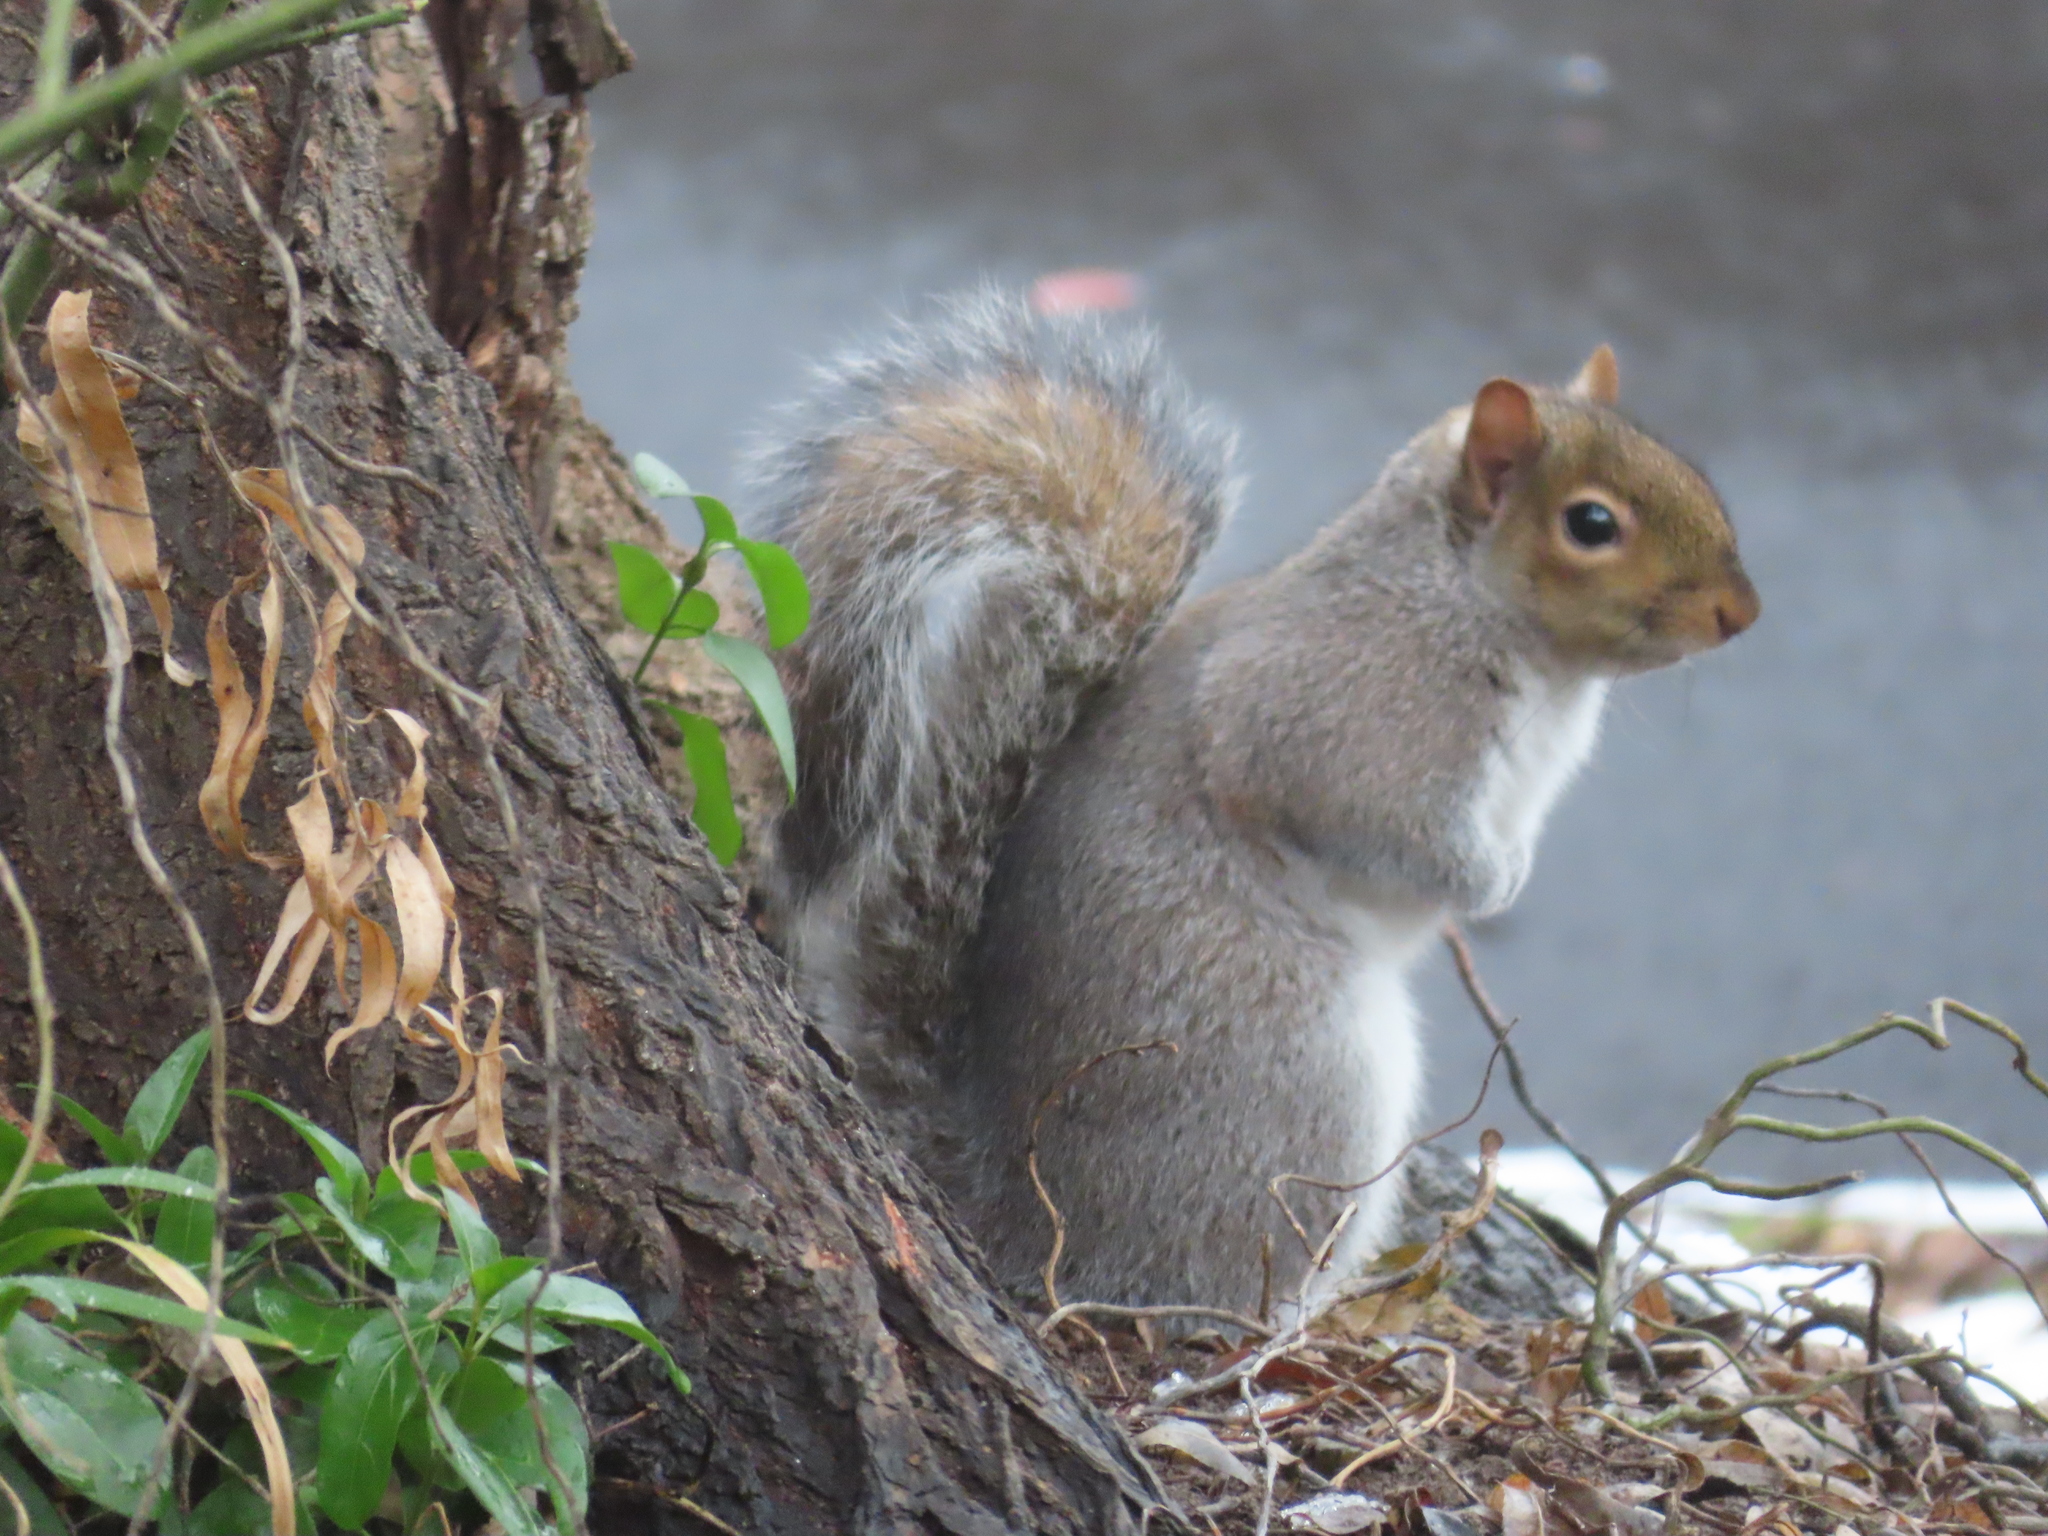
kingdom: Animalia
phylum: Chordata
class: Mammalia
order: Rodentia
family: Sciuridae
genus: Sciurus
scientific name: Sciurus carolinensis
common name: Eastern gray squirrel
